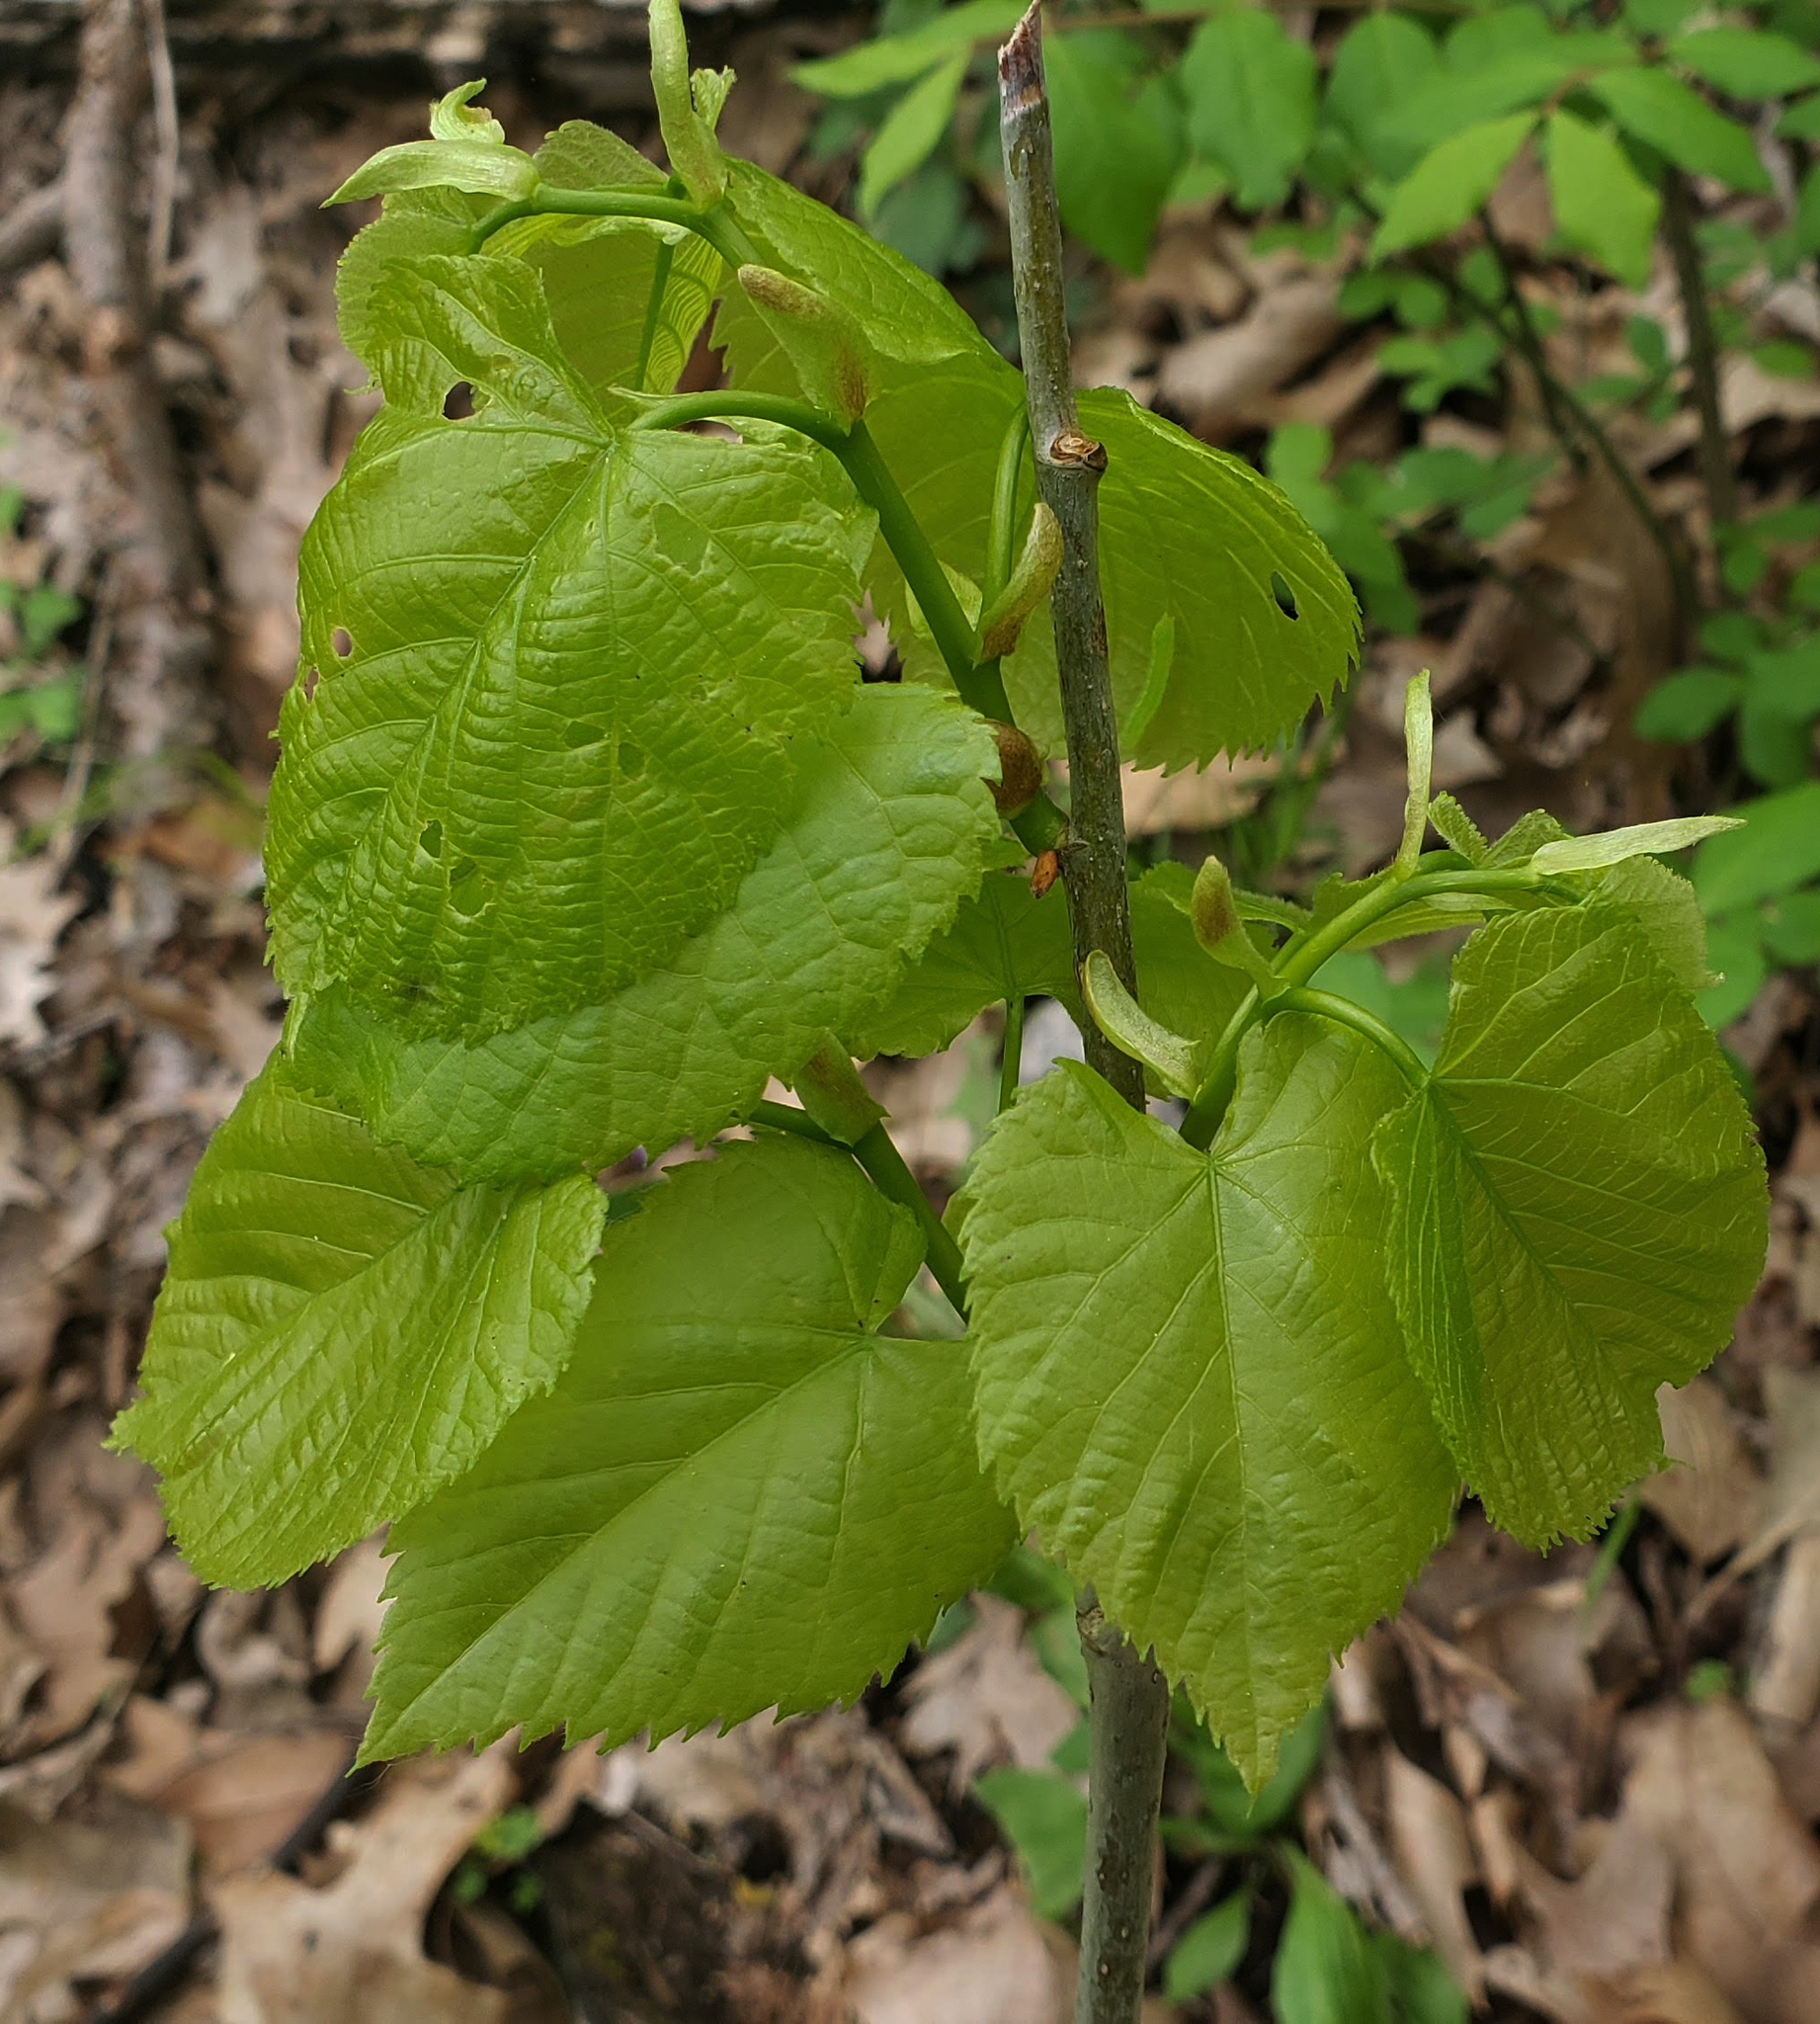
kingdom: Plantae
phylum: Tracheophyta
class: Magnoliopsida
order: Malvales
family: Malvaceae
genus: Tilia
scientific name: Tilia americana
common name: Basswood
